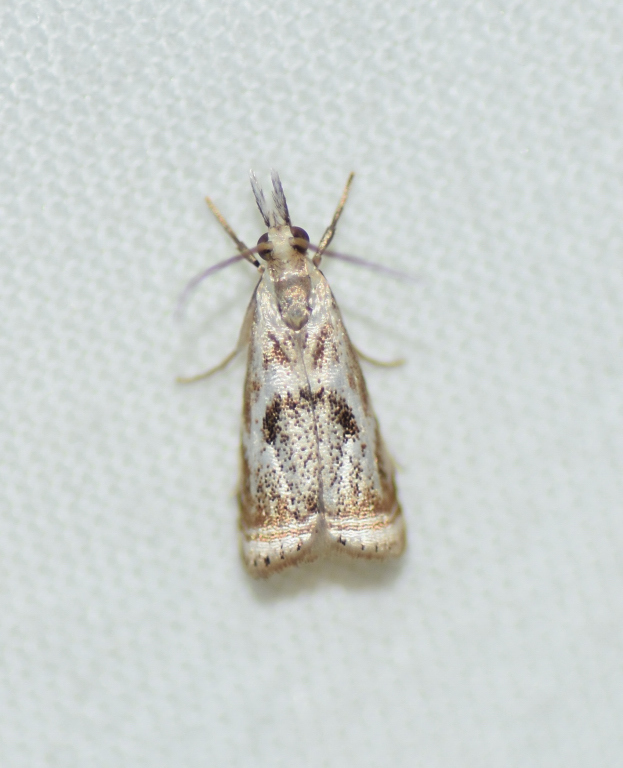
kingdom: Animalia
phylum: Arthropoda
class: Insecta
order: Lepidoptera
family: Crambidae
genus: Microcrambus
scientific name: Microcrambus elegans
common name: Elegant grass-veneer
